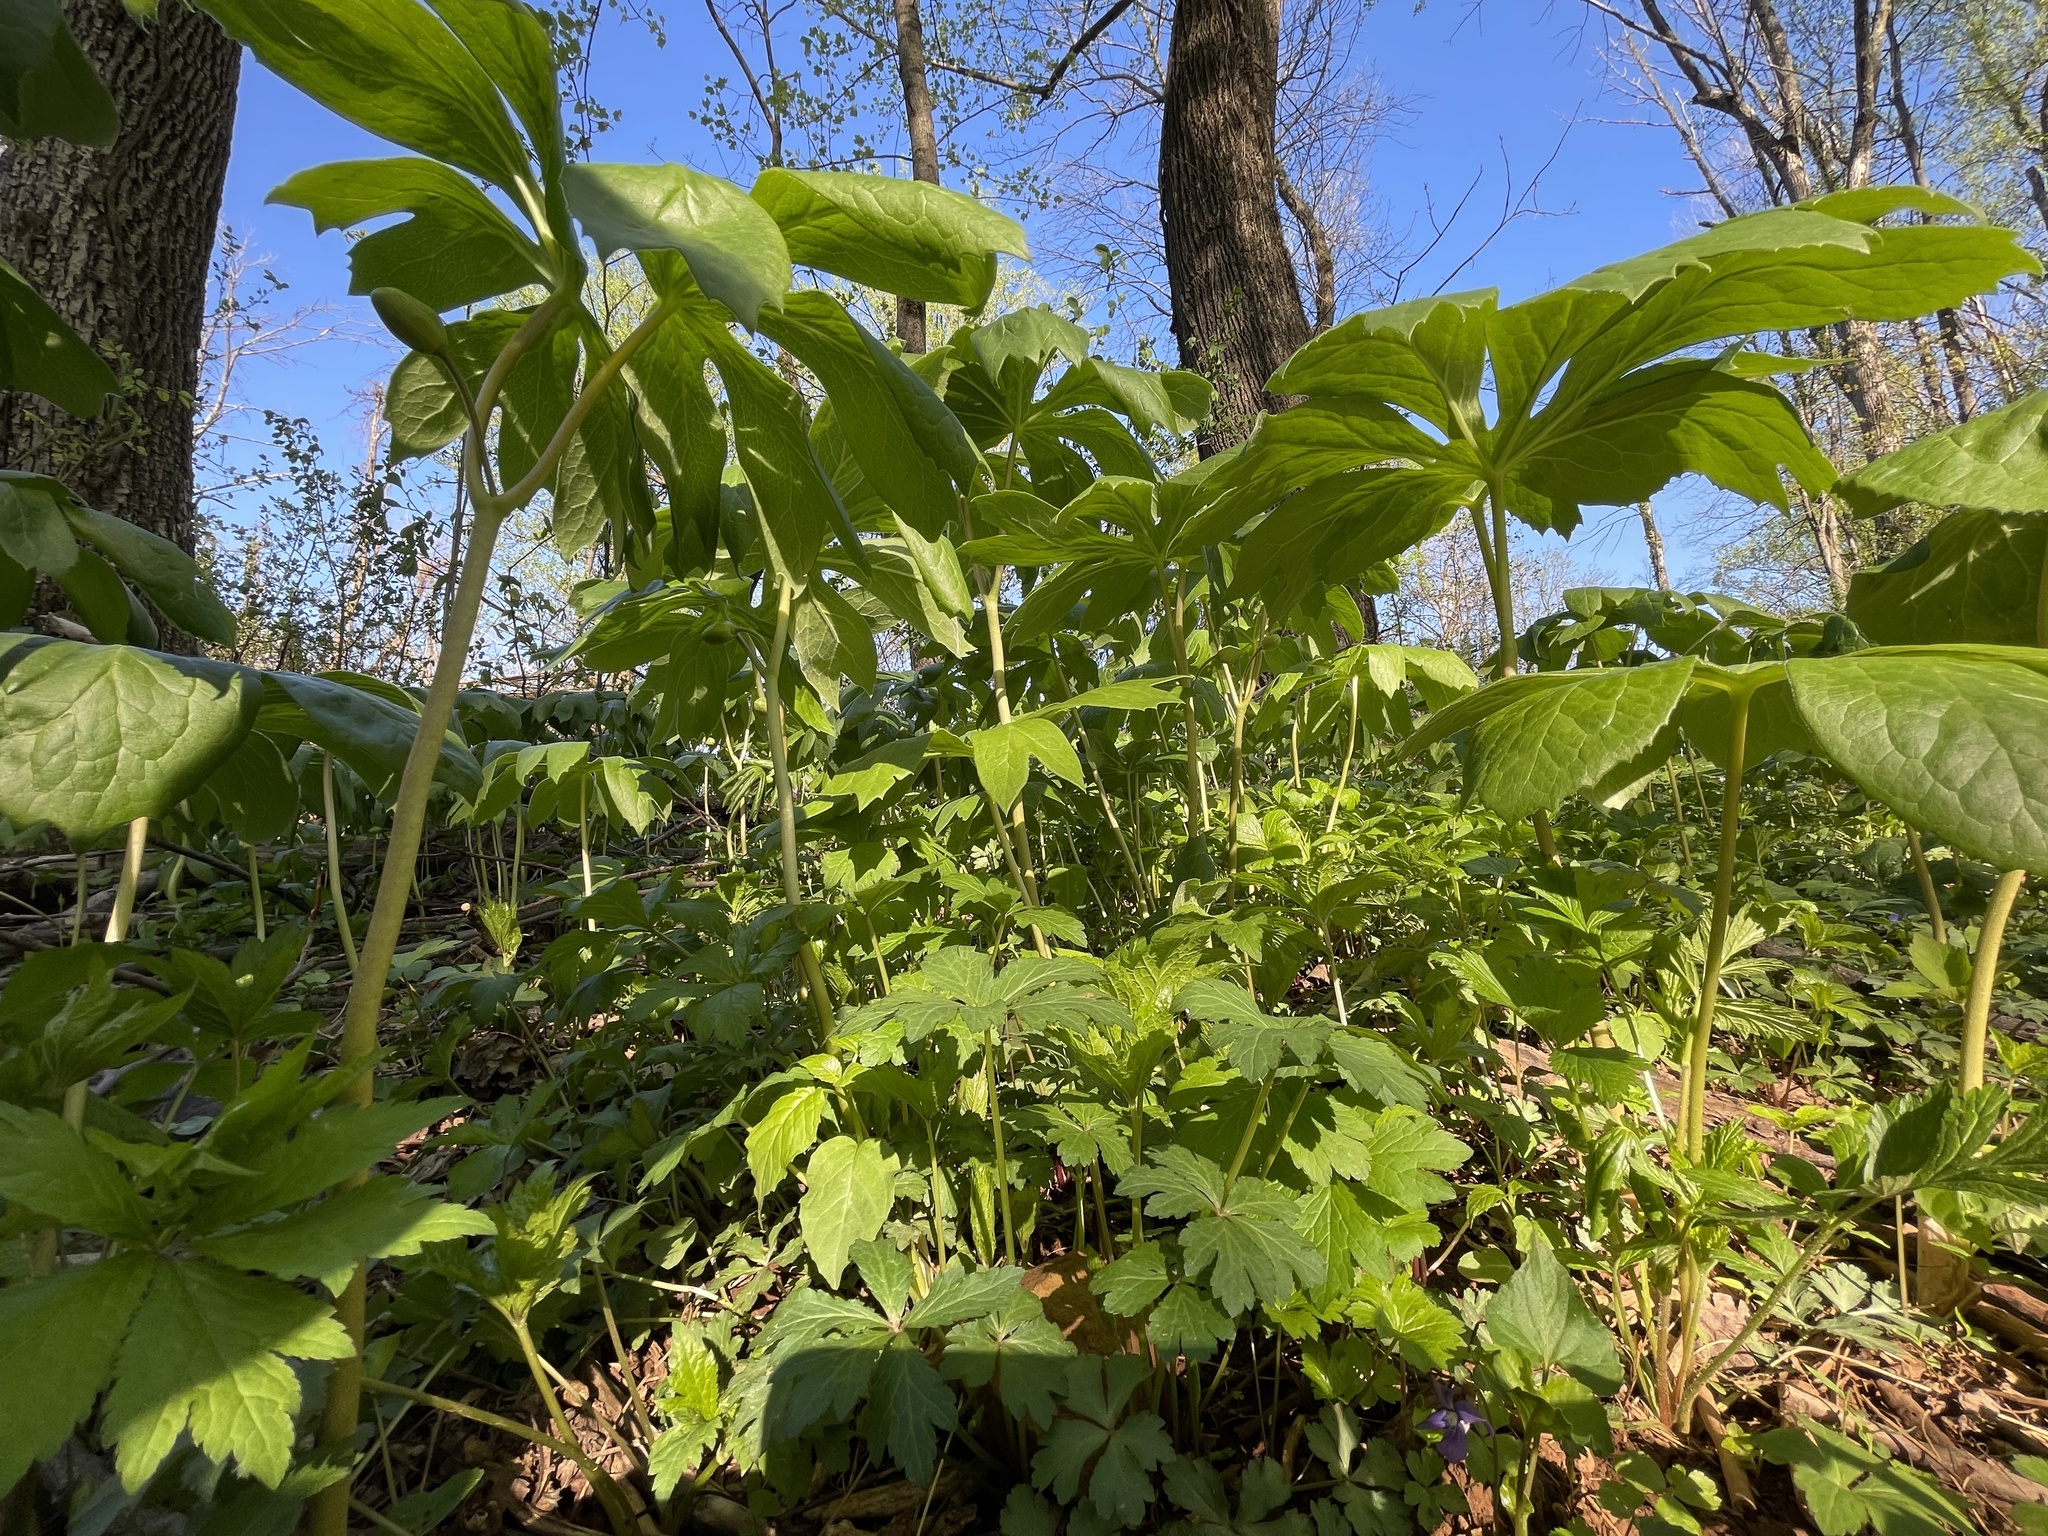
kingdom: Plantae
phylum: Tracheophyta
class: Magnoliopsida
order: Ranunculales
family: Berberidaceae
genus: Podophyllum
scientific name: Podophyllum peltatum
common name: Wild mandrake
